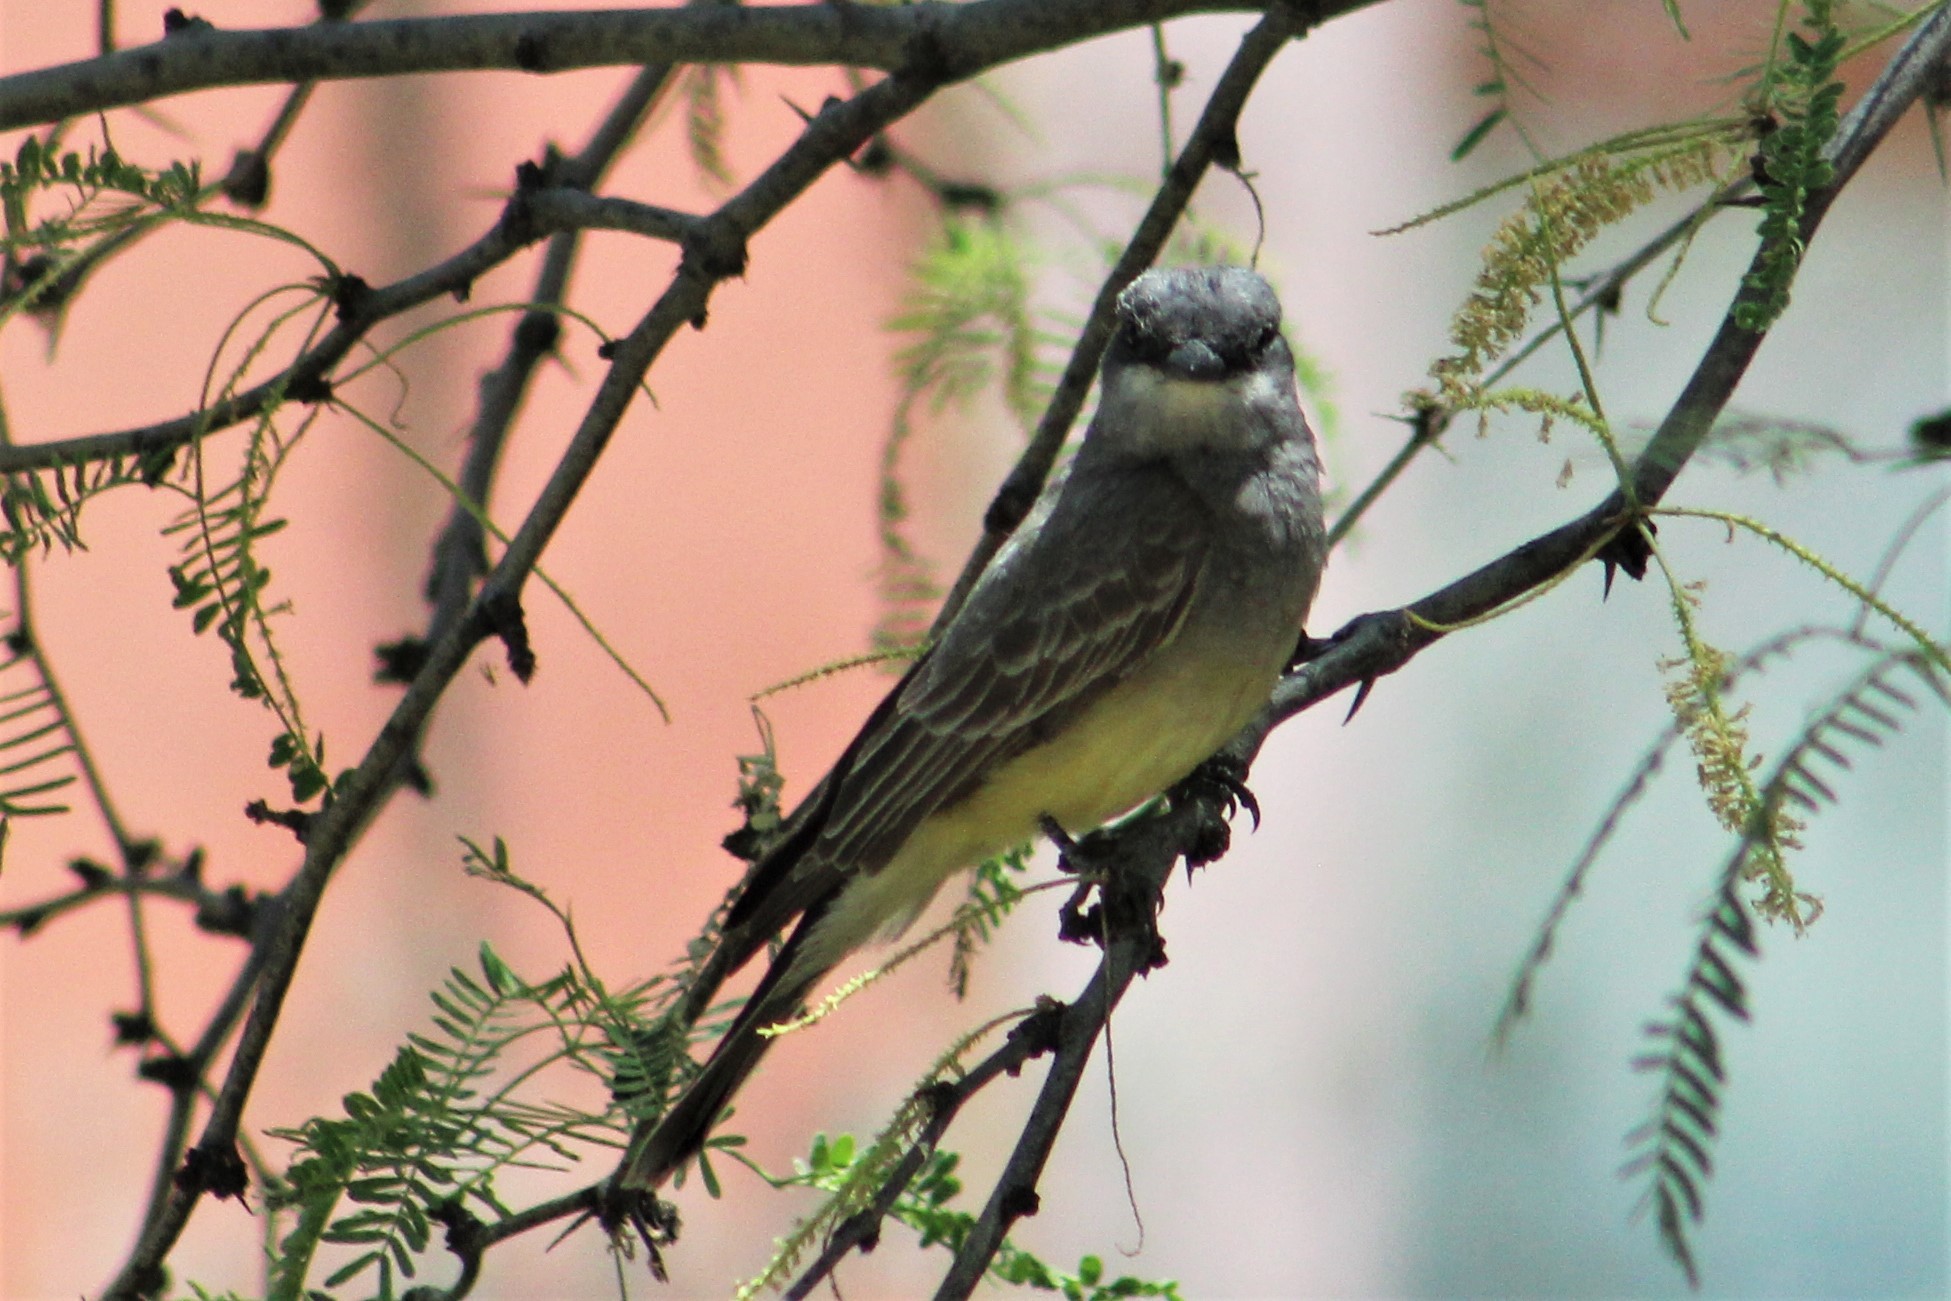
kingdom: Animalia
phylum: Chordata
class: Aves
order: Passeriformes
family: Tyrannidae
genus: Tyrannus
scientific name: Tyrannus vociferans
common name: Cassin's kingbird
